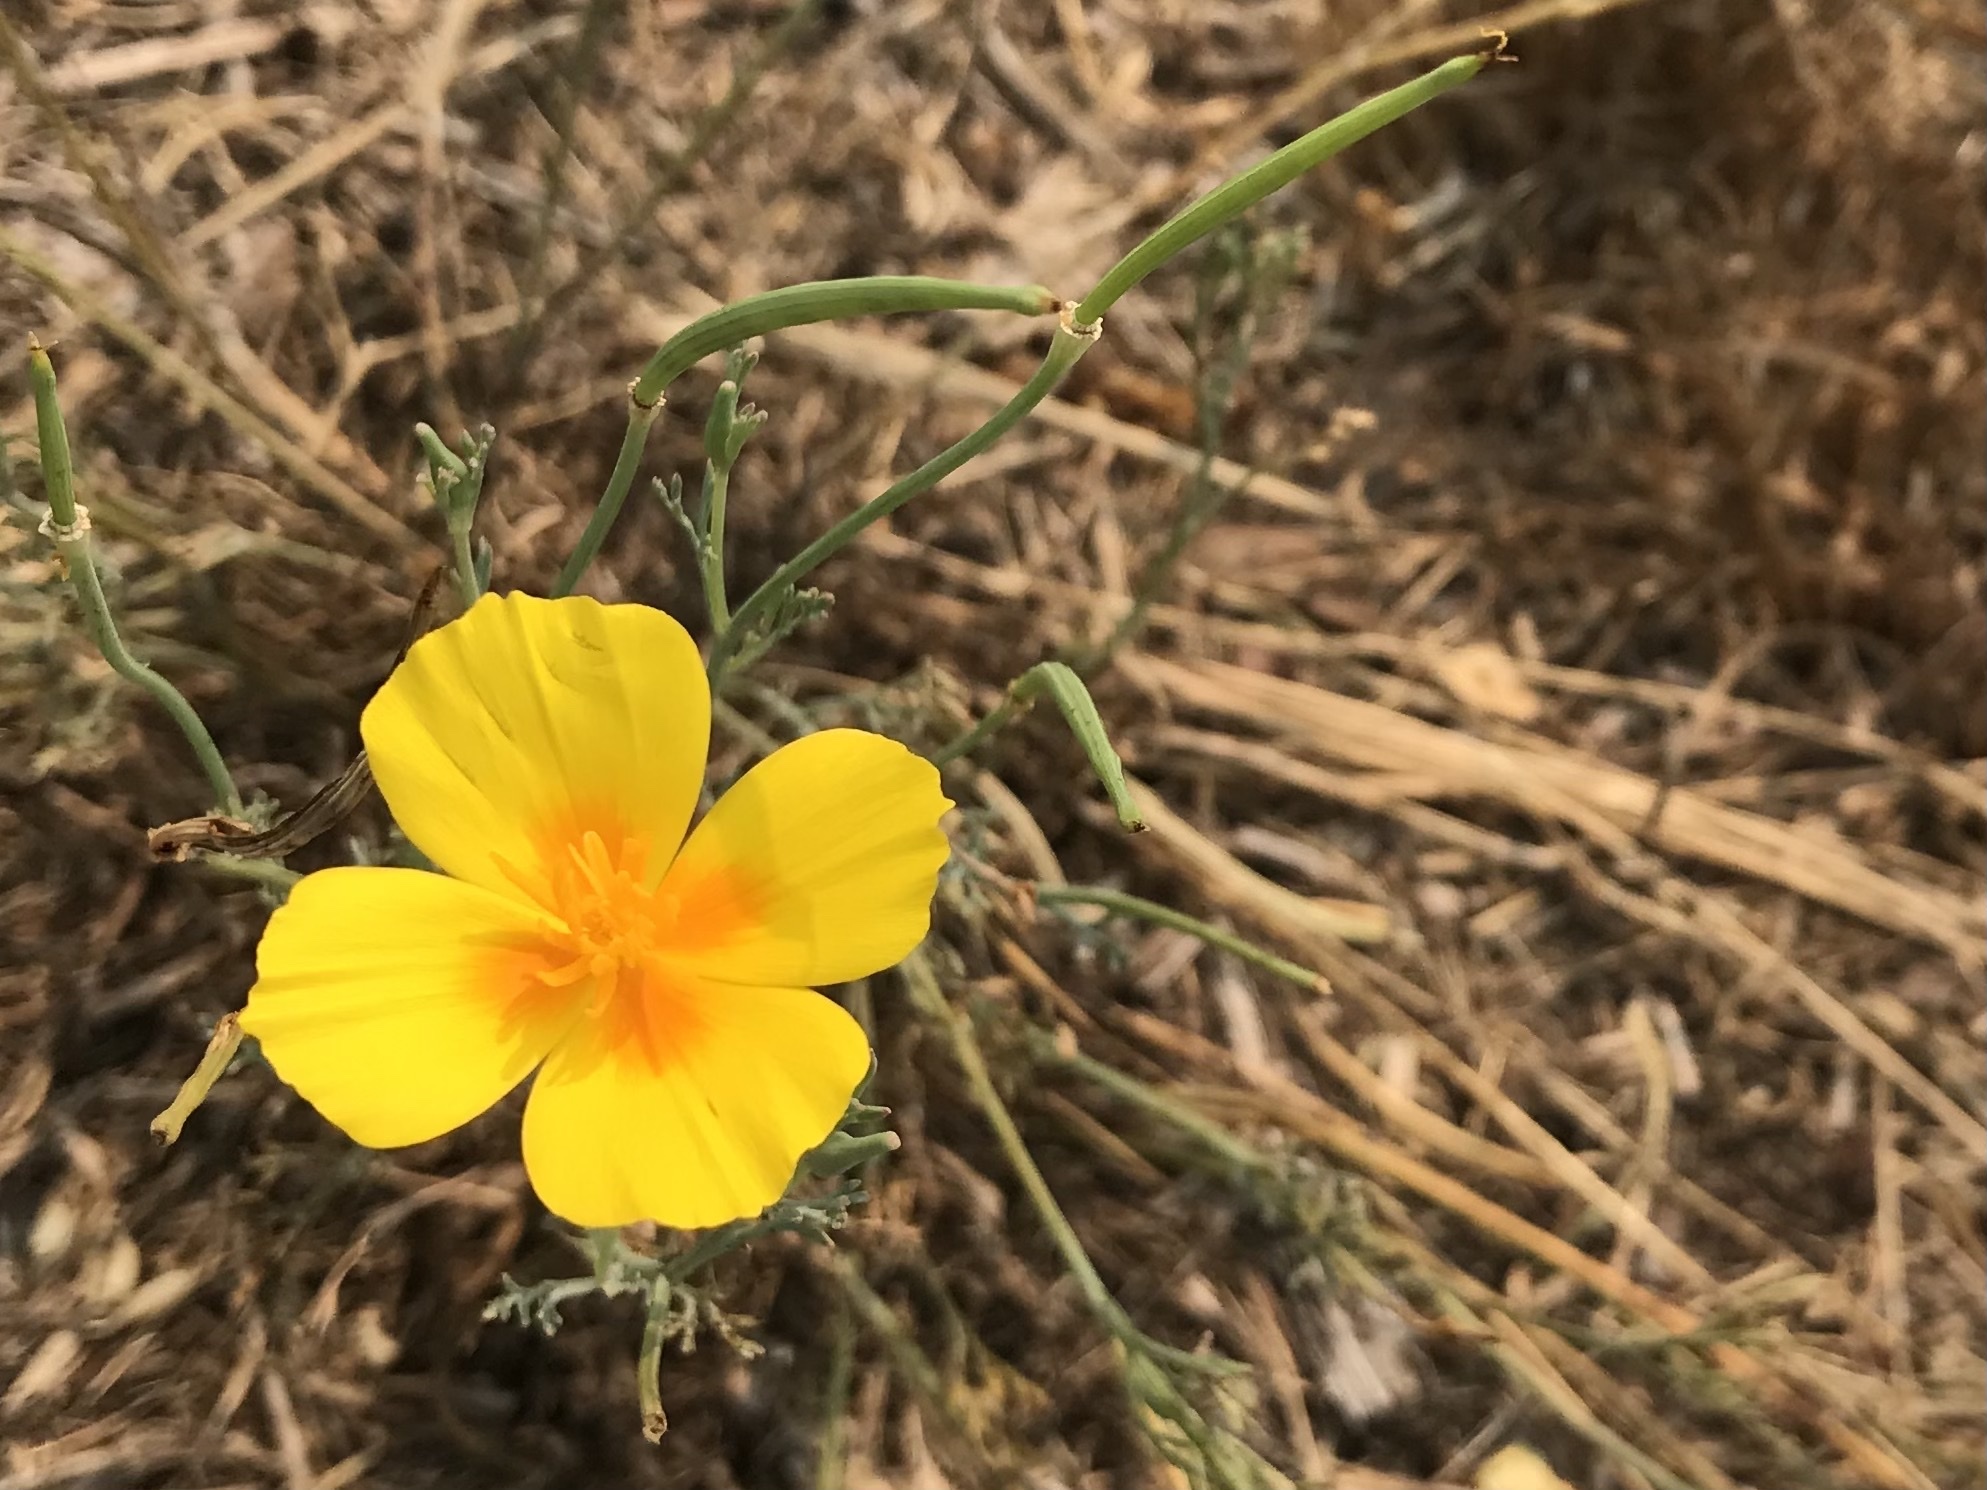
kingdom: Plantae
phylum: Tracheophyta
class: Magnoliopsida
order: Ranunculales
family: Papaveraceae
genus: Eschscholzia
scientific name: Eschscholzia californica
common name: California poppy
